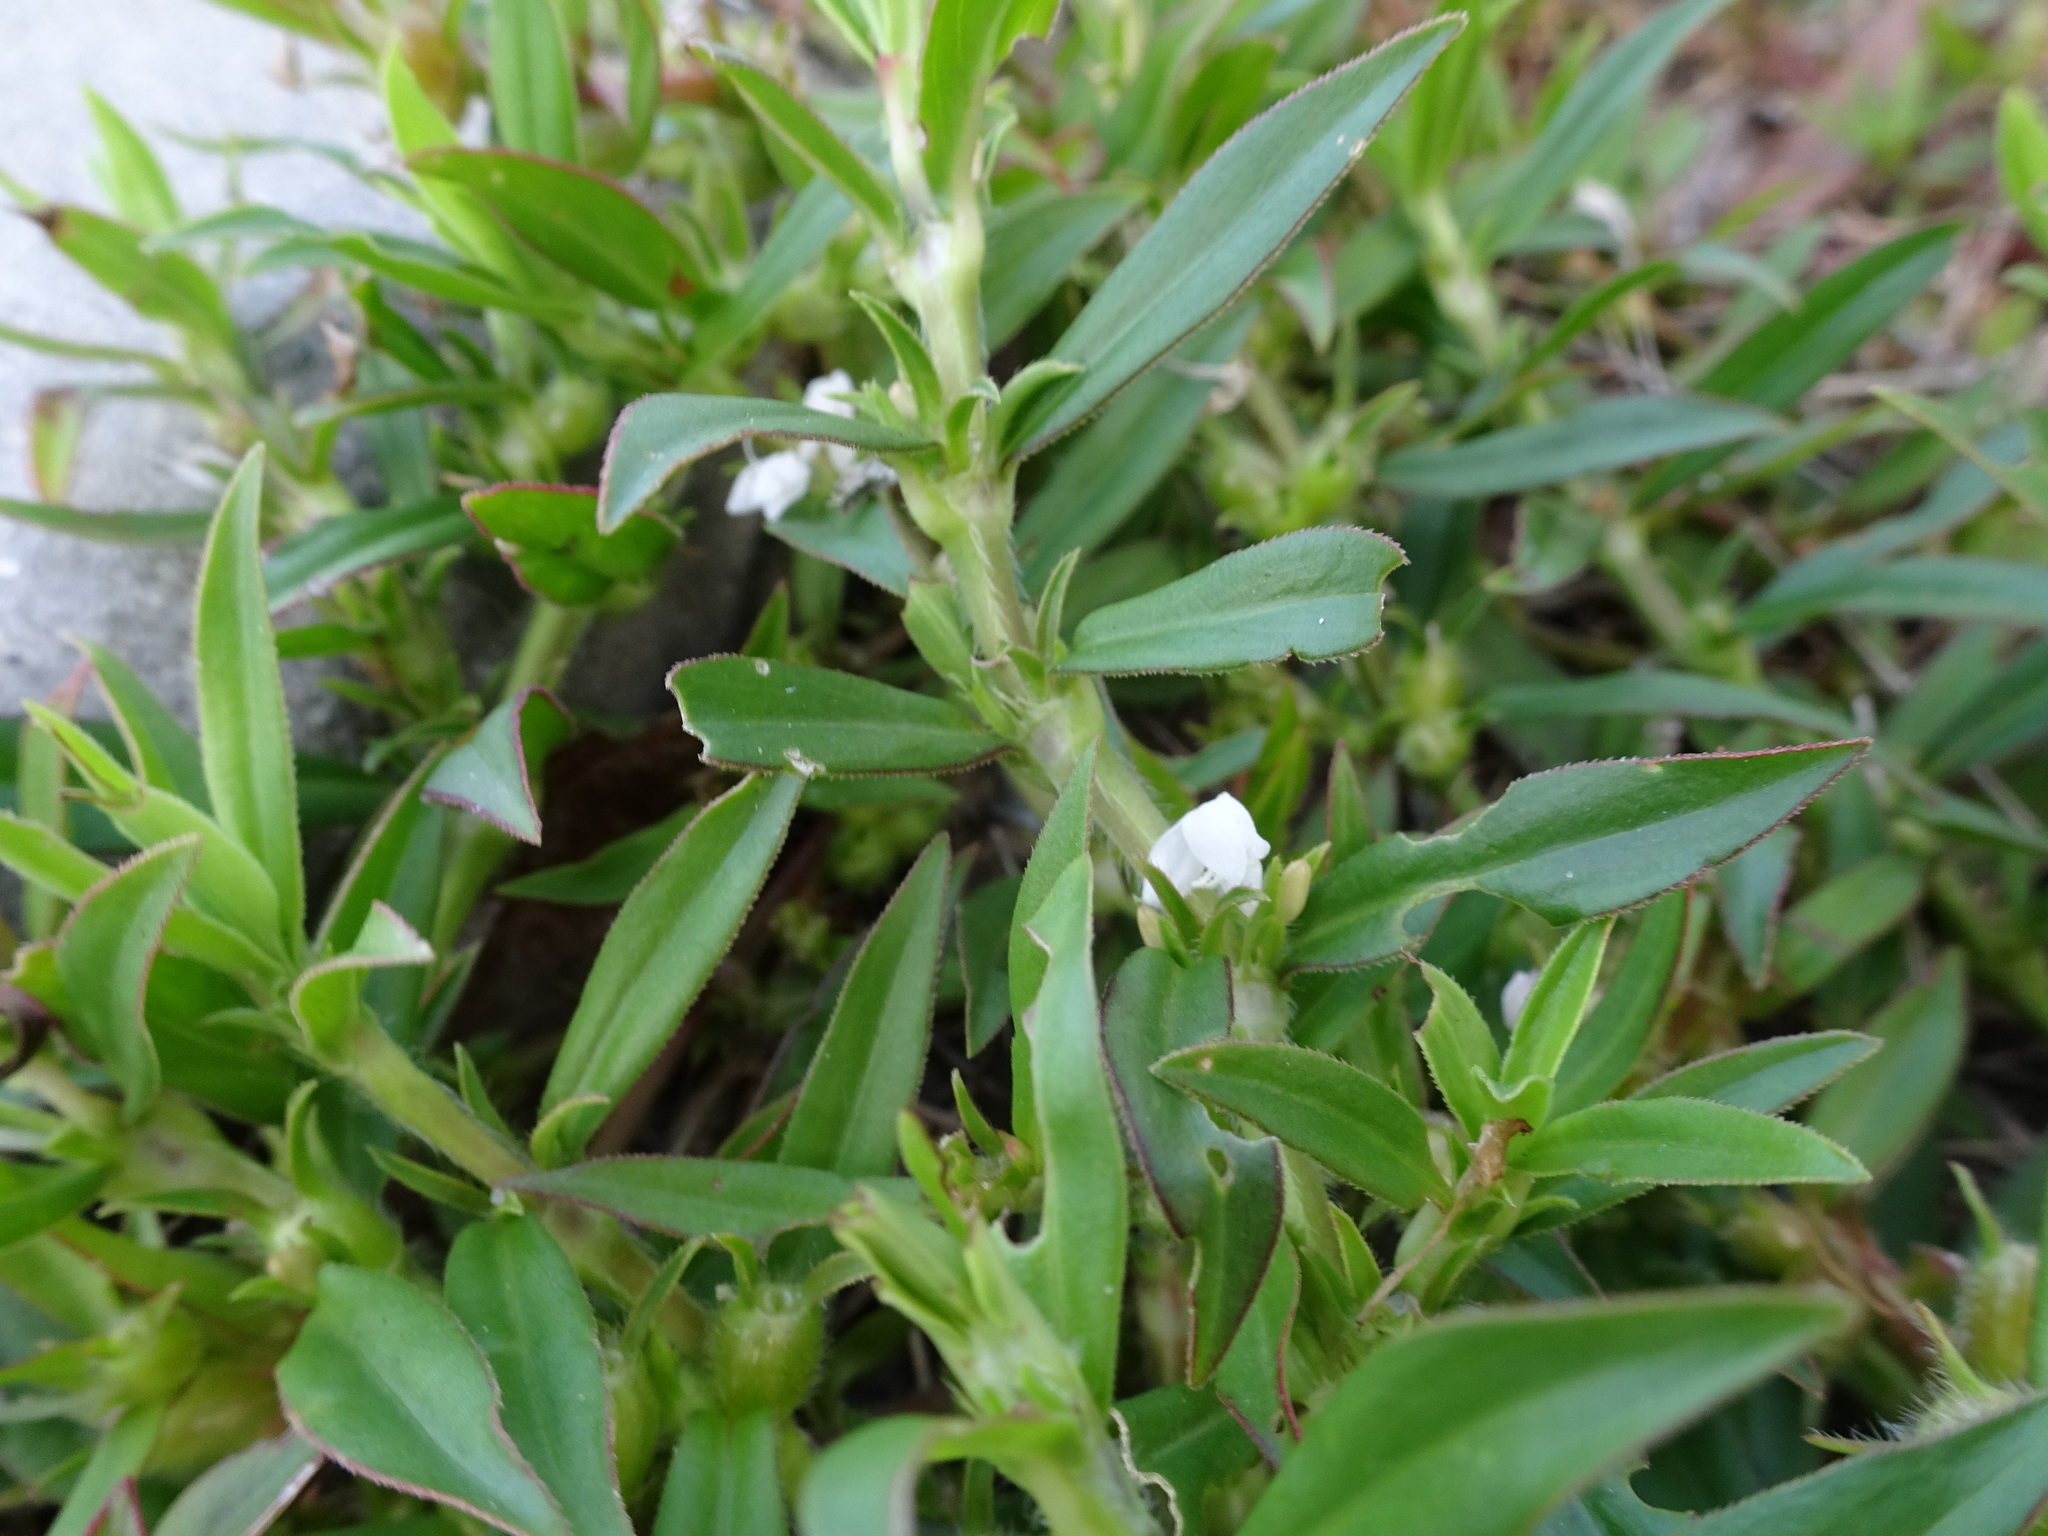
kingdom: Plantae
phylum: Tracheophyta
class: Magnoliopsida
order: Gentianales
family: Rubiaceae
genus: Diodia
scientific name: Diodia virginiana
